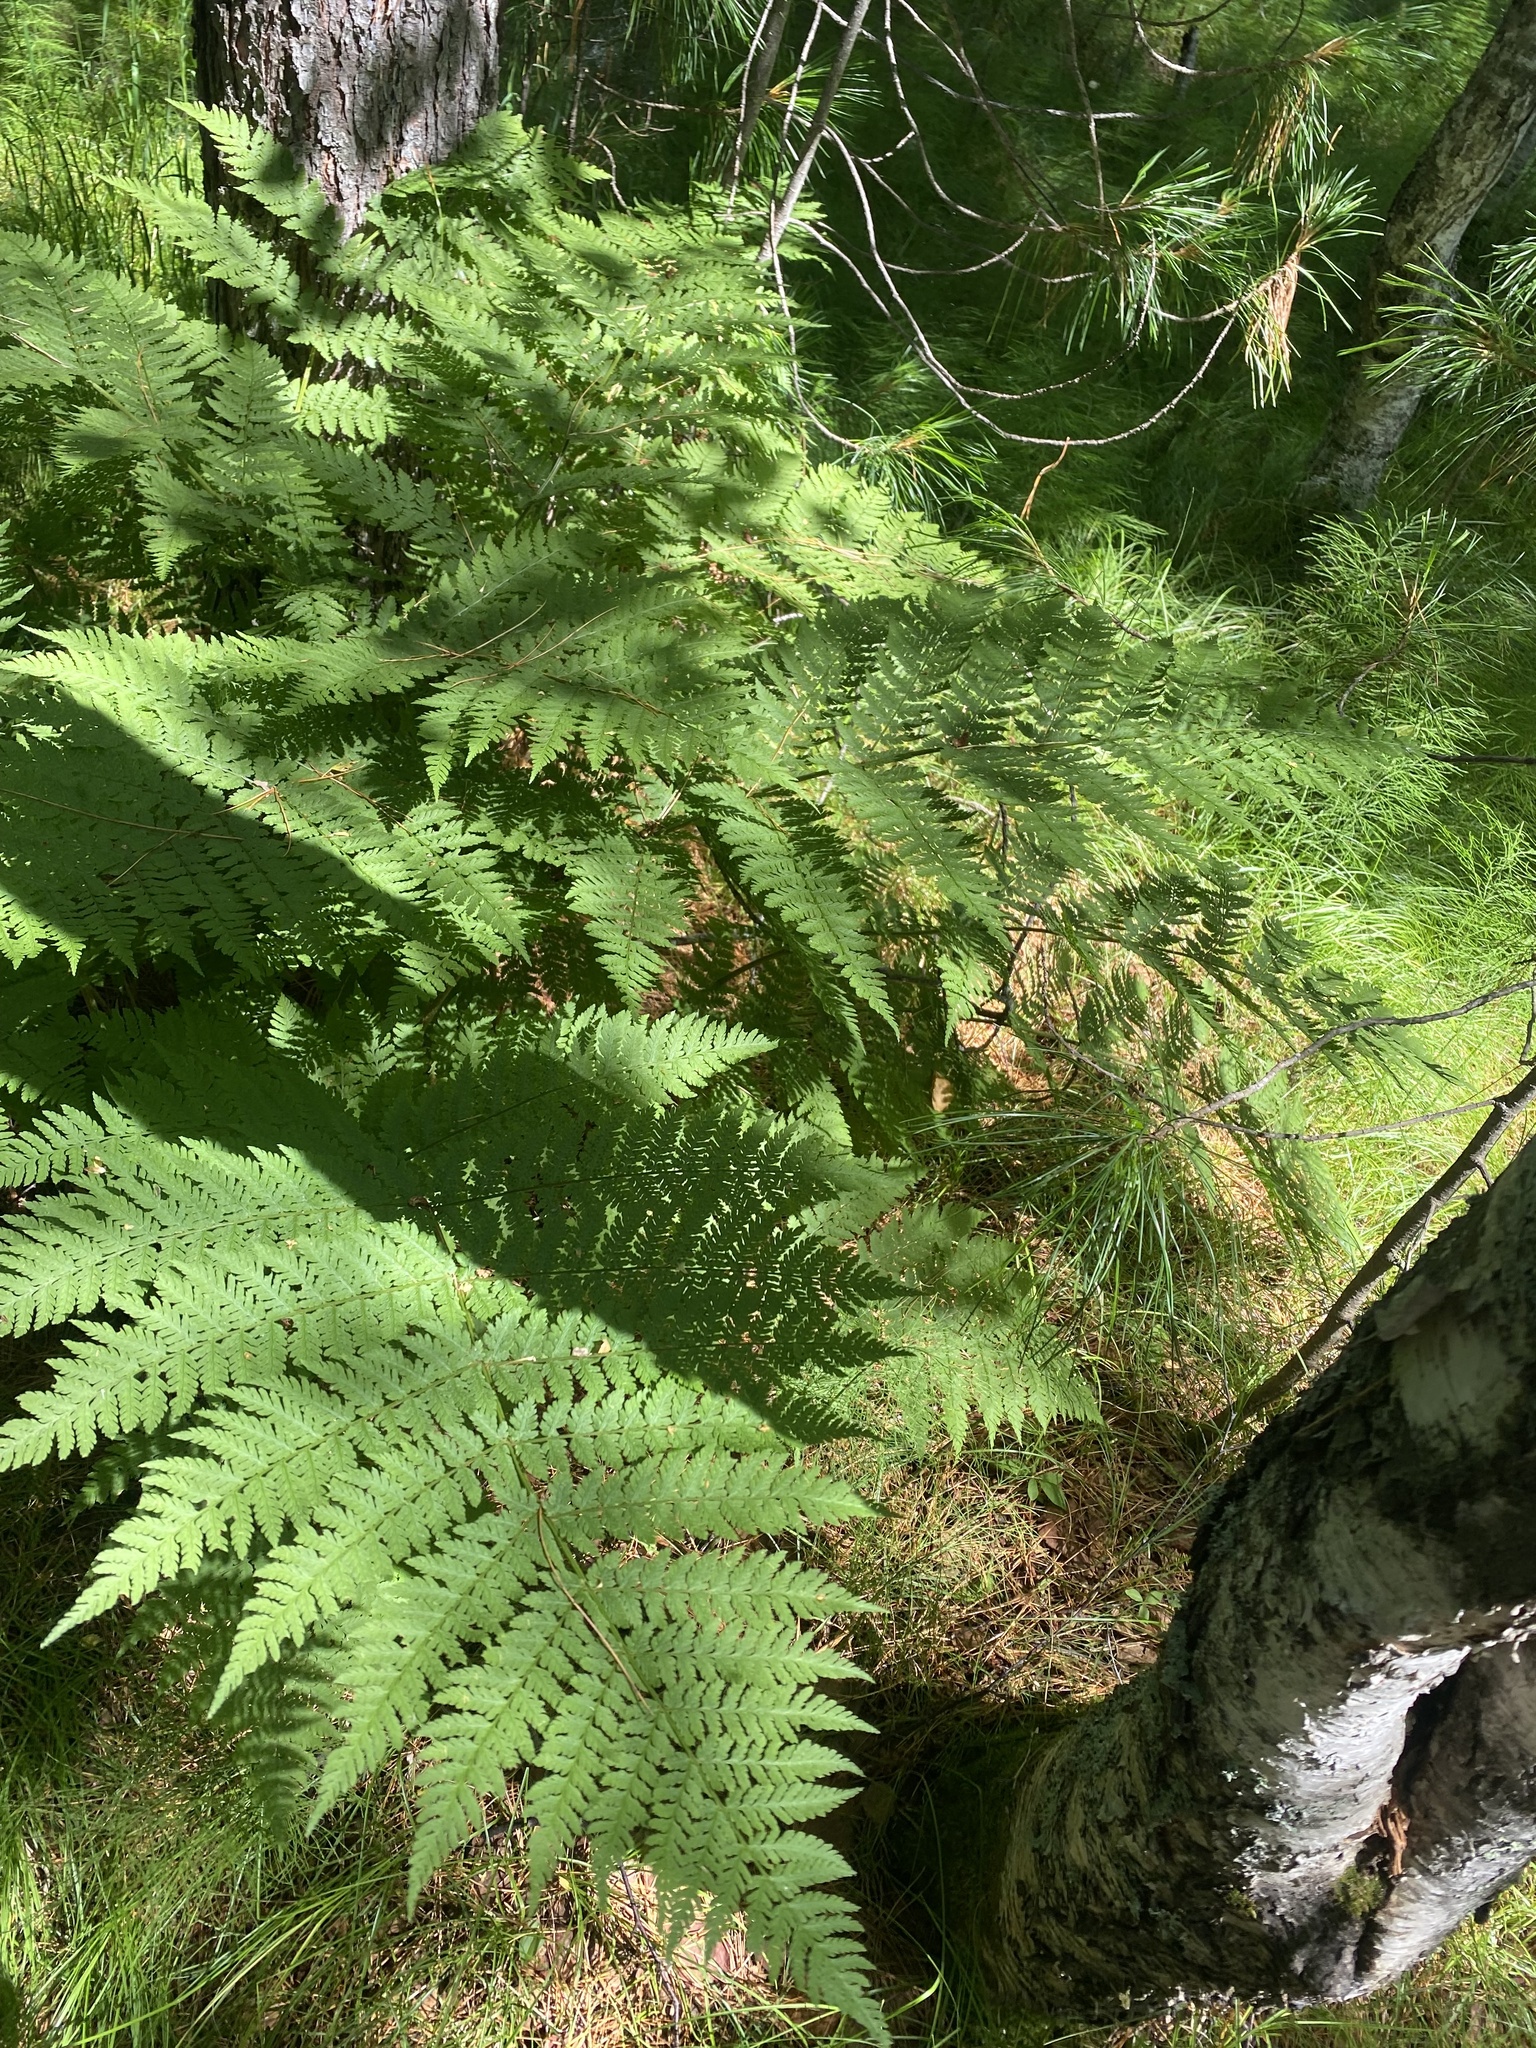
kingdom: Plantae
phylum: Tracheophyta
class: Polypodiopsida
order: Polypodiales
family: Dryopteridaceae
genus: Dryopteris
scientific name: Dryopteris expansa
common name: Northern buckler fern
